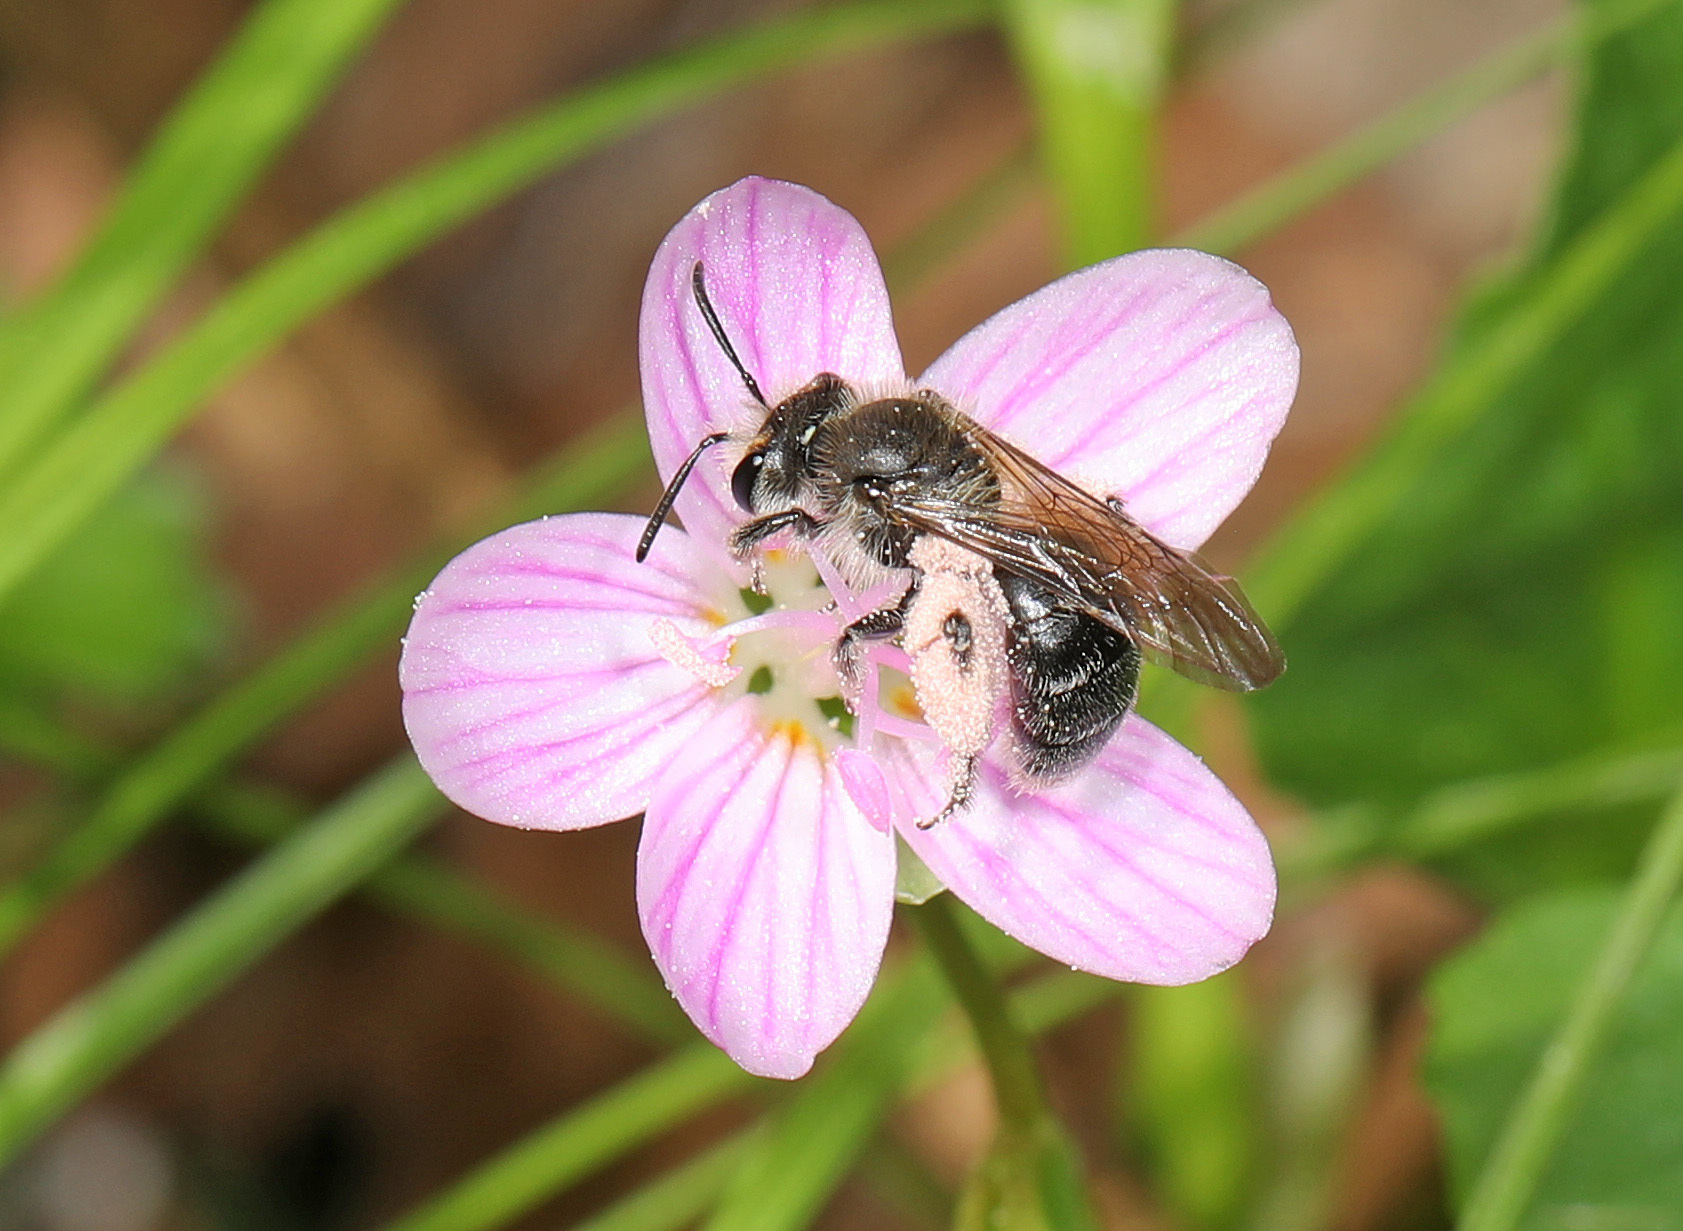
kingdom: Animalia
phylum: Arthropoda
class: Insecta
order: Hymenoptera
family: Andrenidae
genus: Andrena
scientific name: Andrena erigeniae
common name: Spring beauty miner
